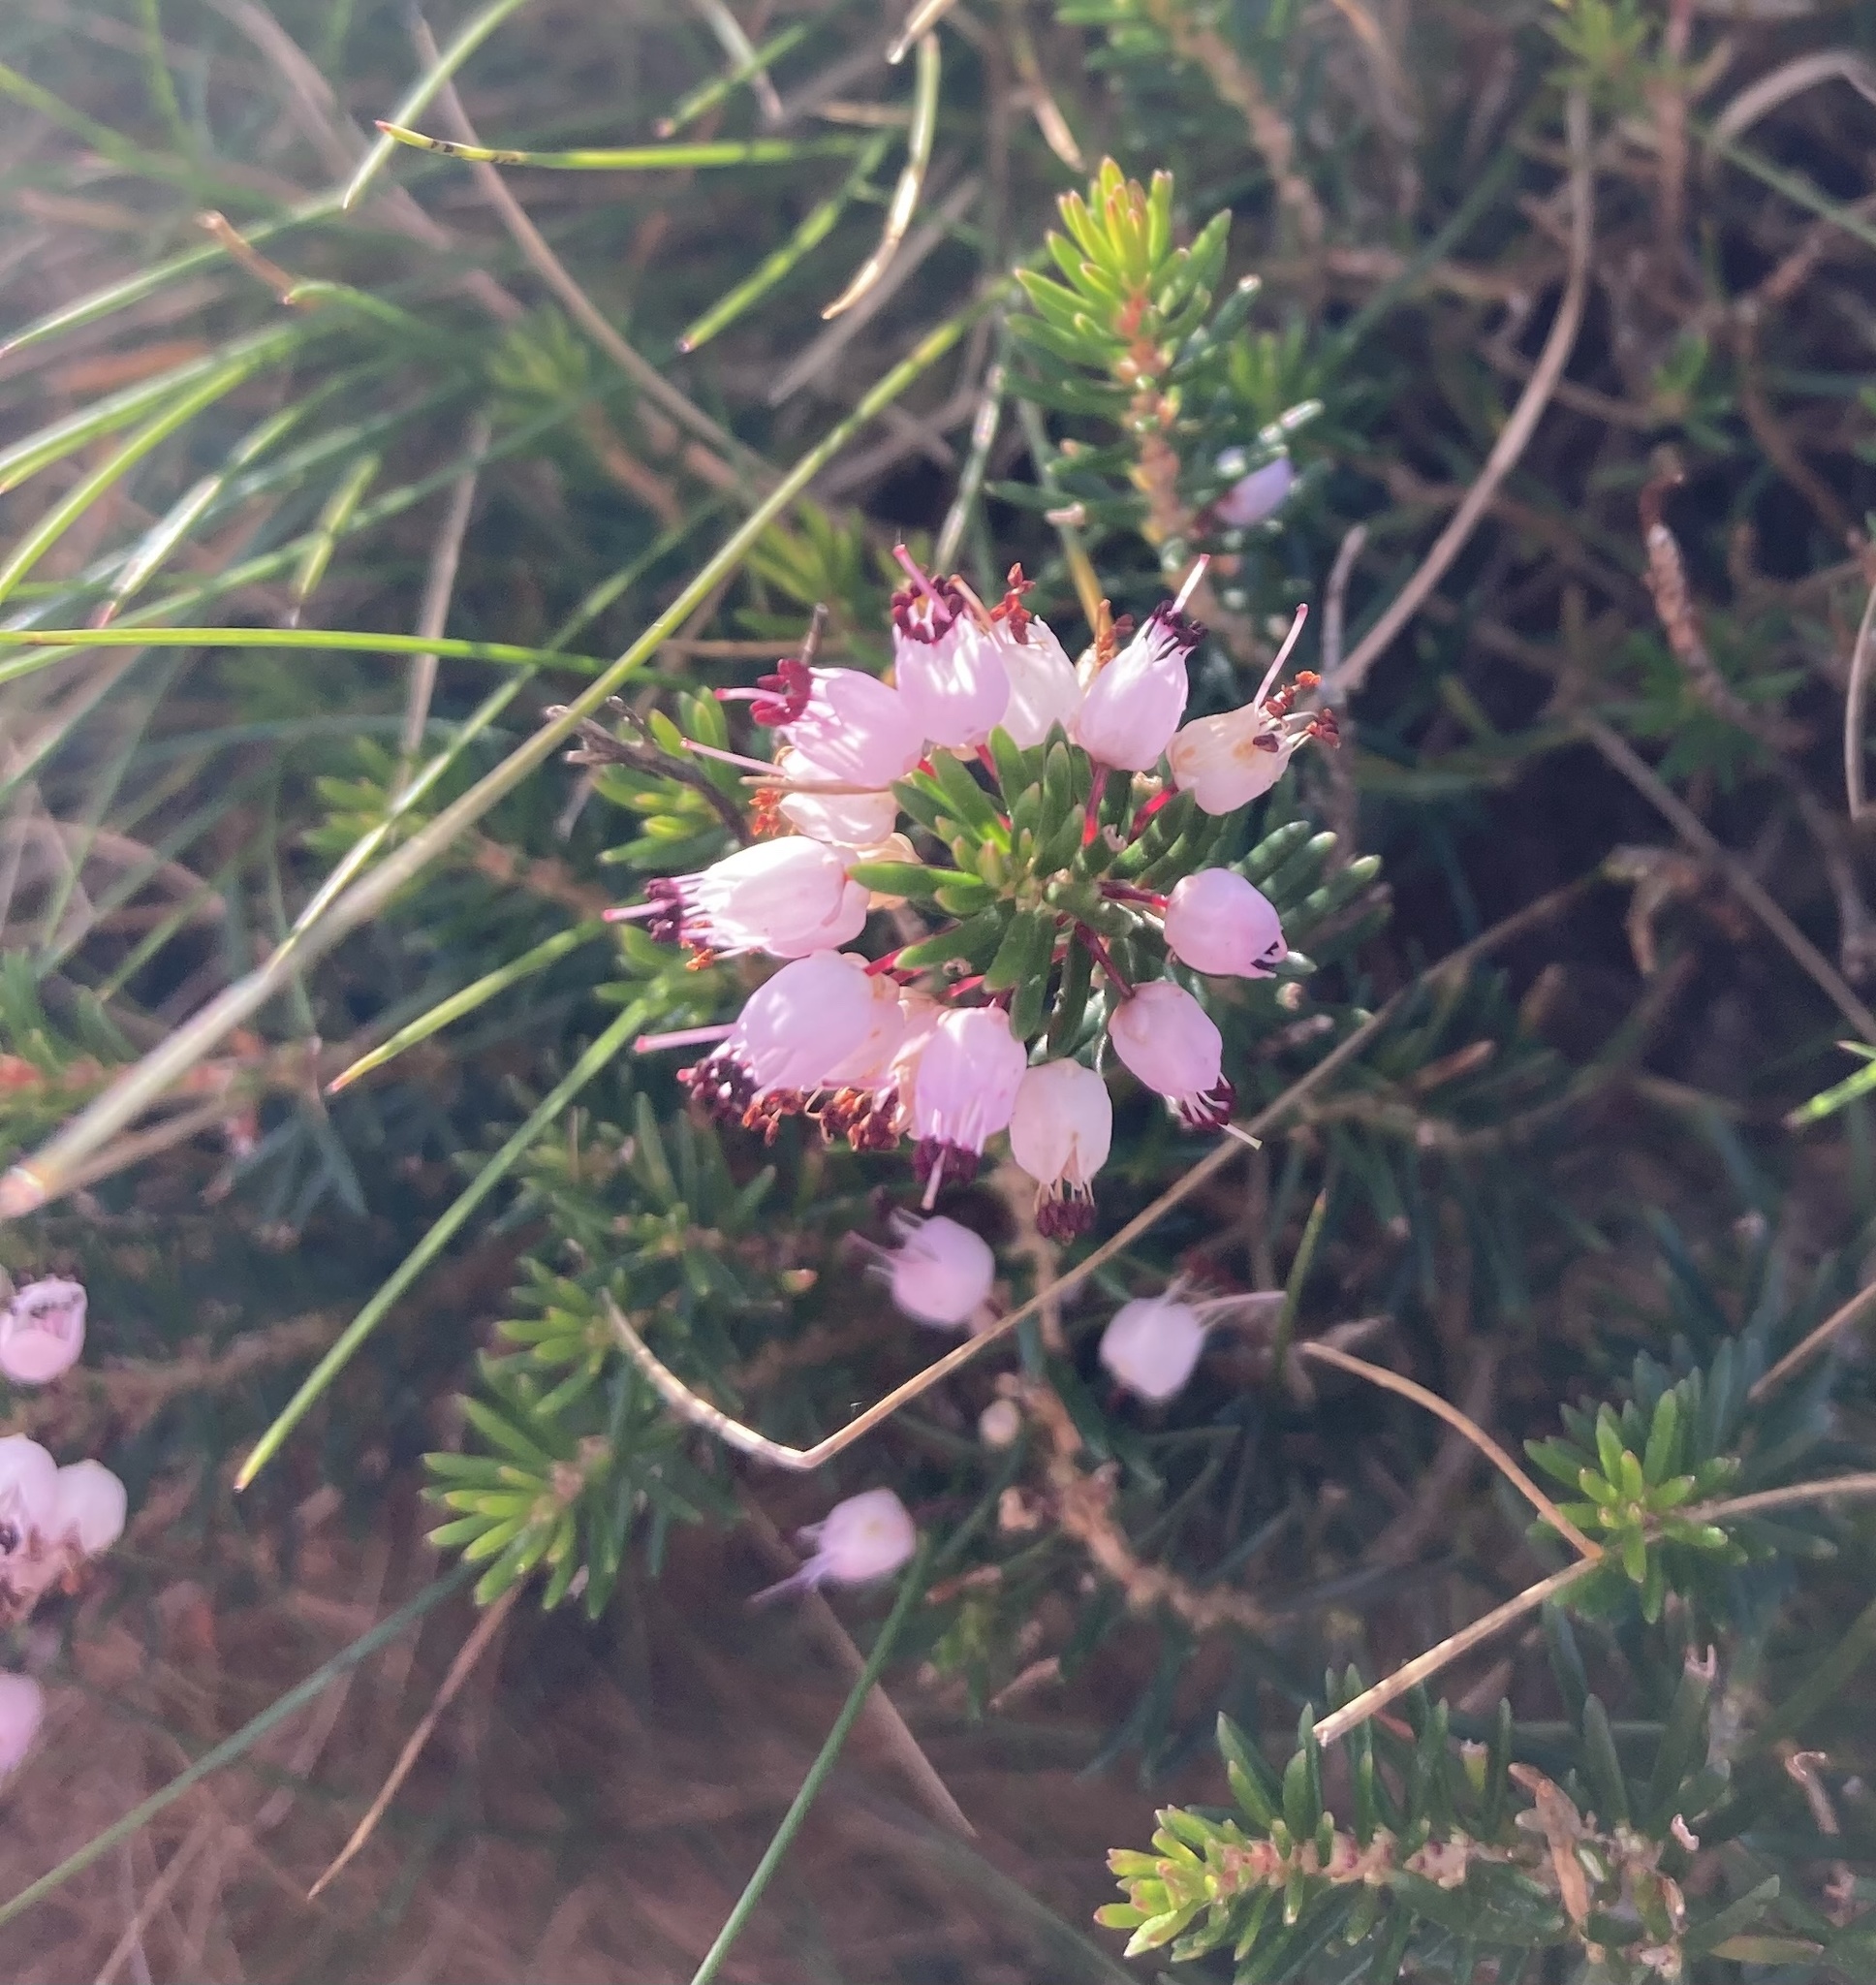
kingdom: Plantae
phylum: Tracheophyta
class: Magnoliopsida
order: Ericales
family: Ericaceae
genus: Erica
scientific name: Erica vagans
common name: Cornish heath
